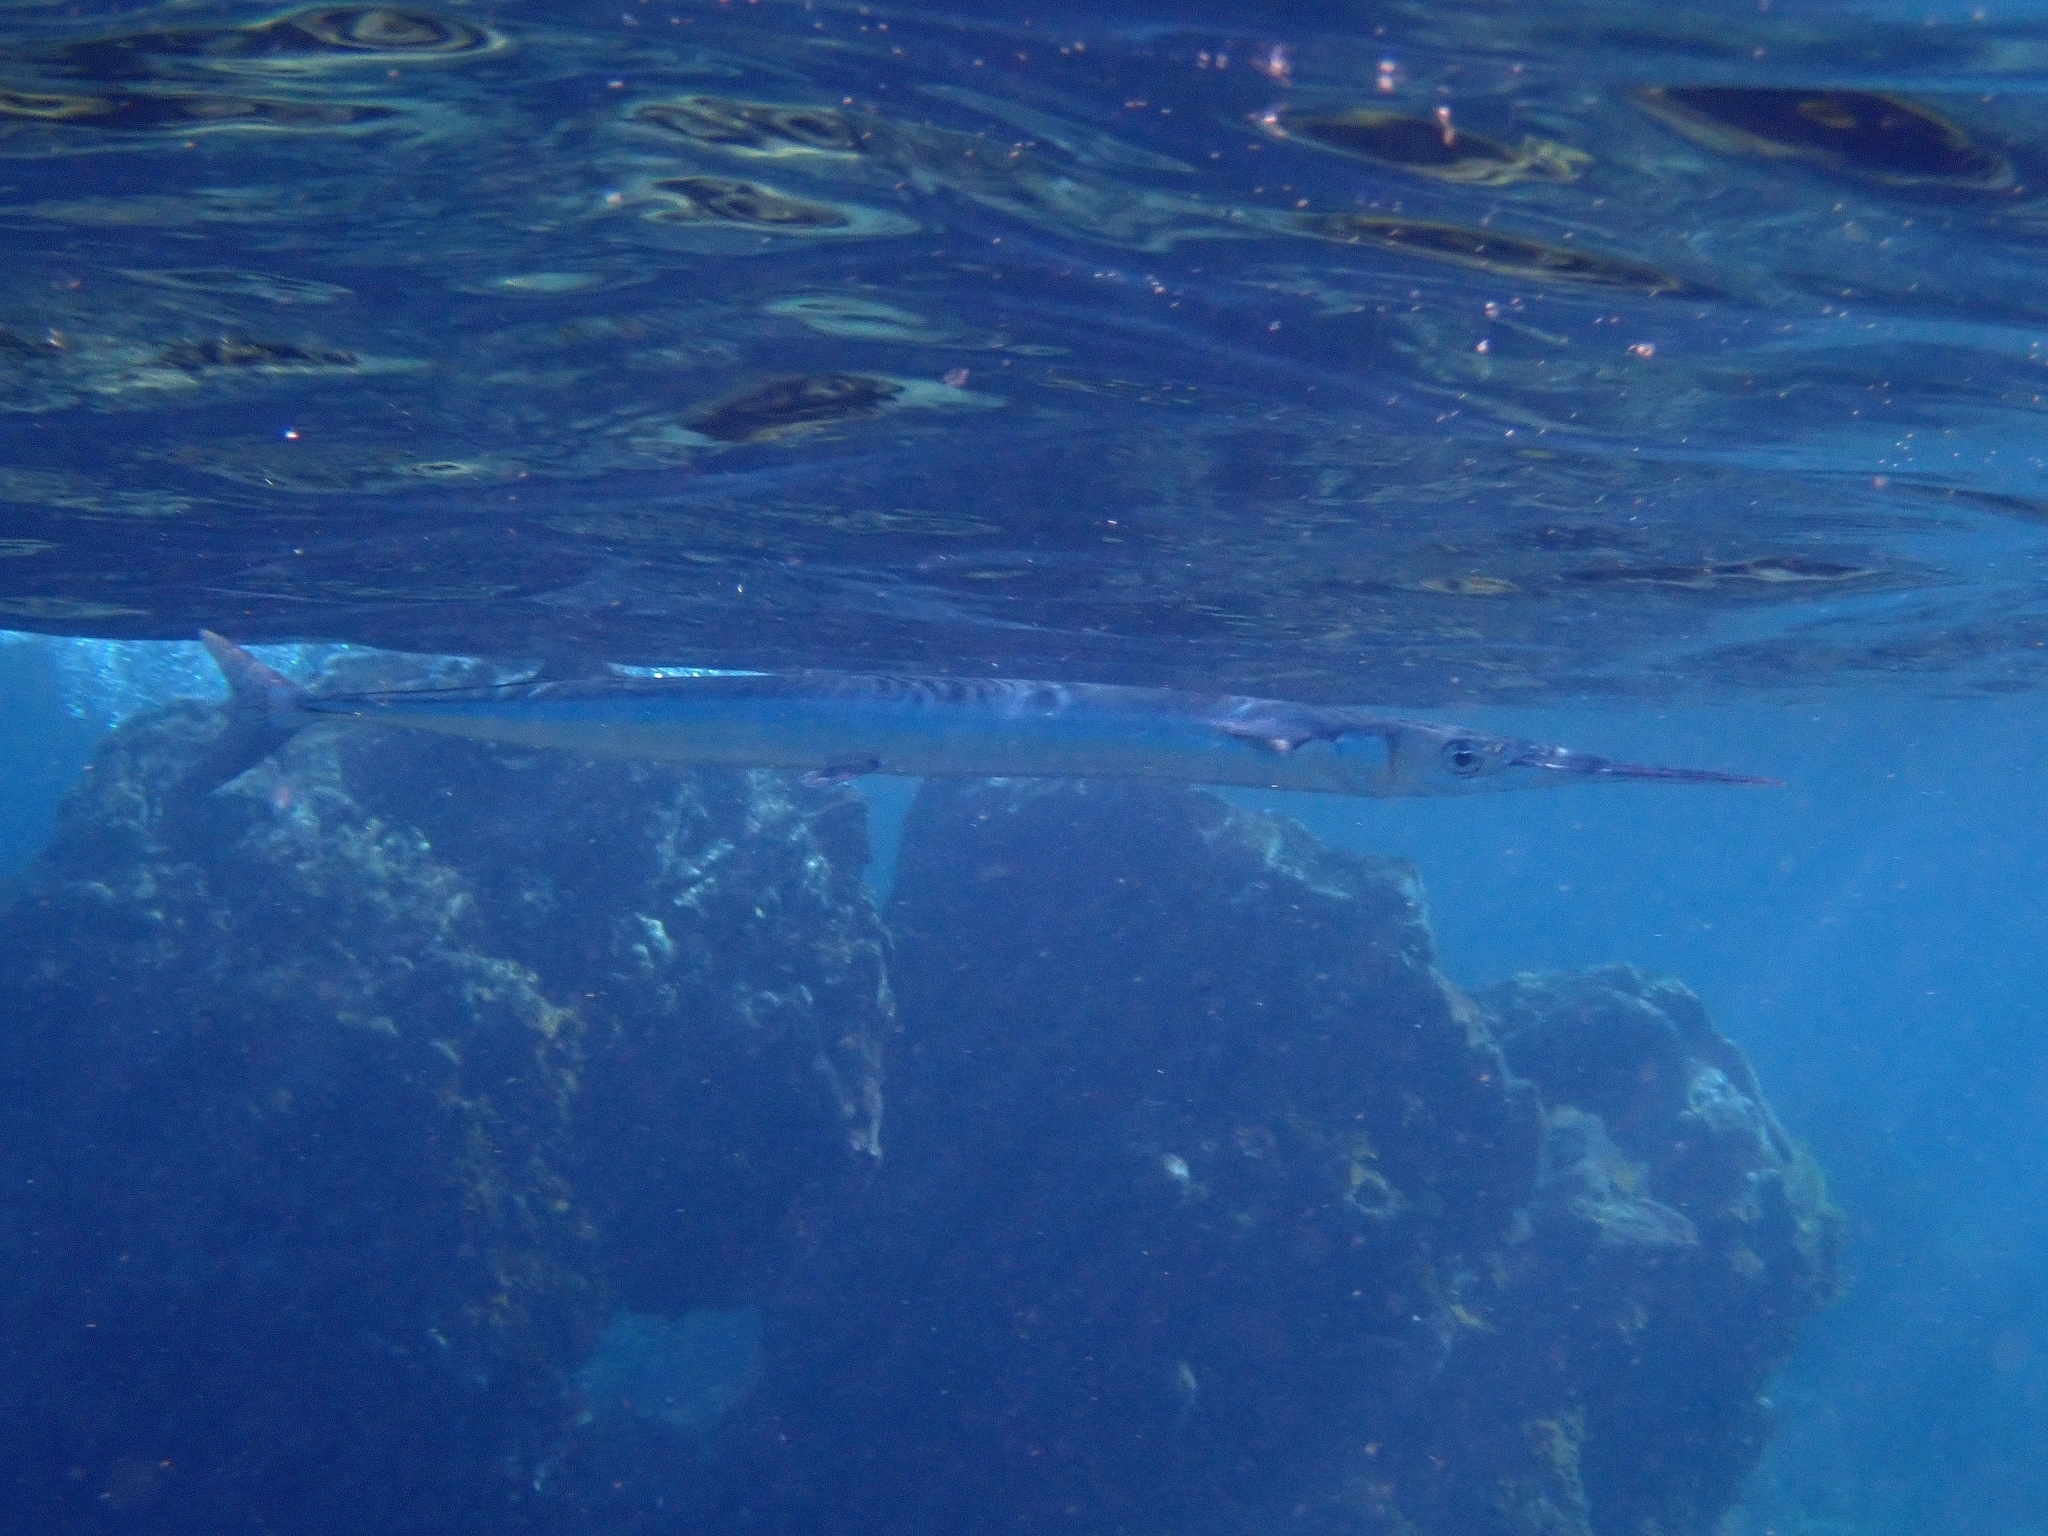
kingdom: Animalia
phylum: Chordata
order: Beloniformes
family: Belonidae
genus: Tylosurus
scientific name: Tylosurus acus
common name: Agujon needlefish
